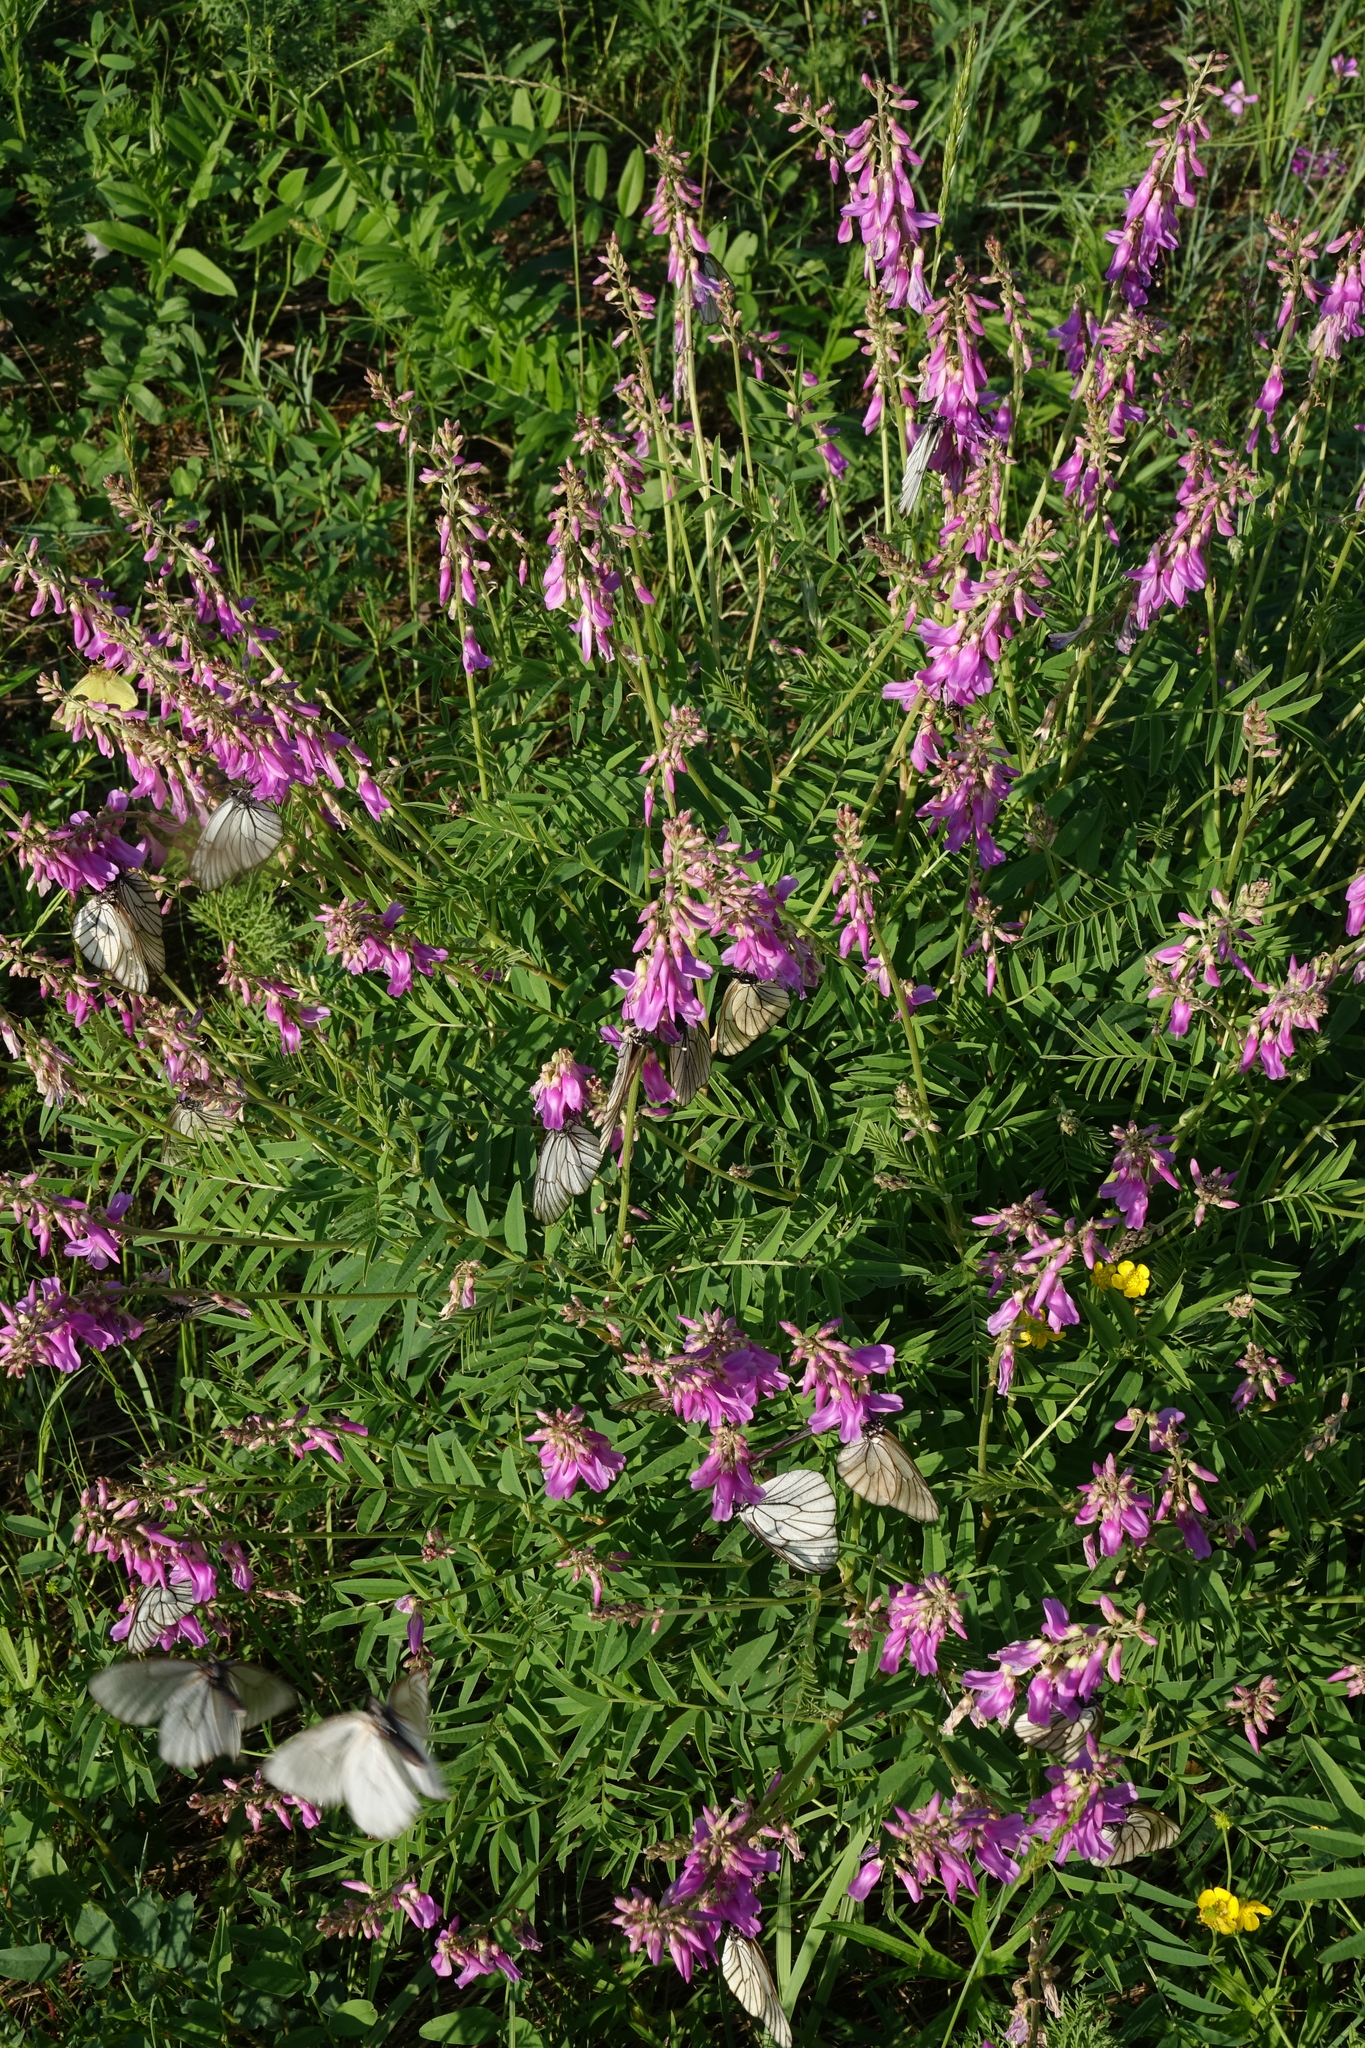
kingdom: Animalia
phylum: Arthropoda
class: Insecta
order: Lepidoptera
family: Pieridae
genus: Aporia
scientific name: Aporia crataegi
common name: Black-veined white
